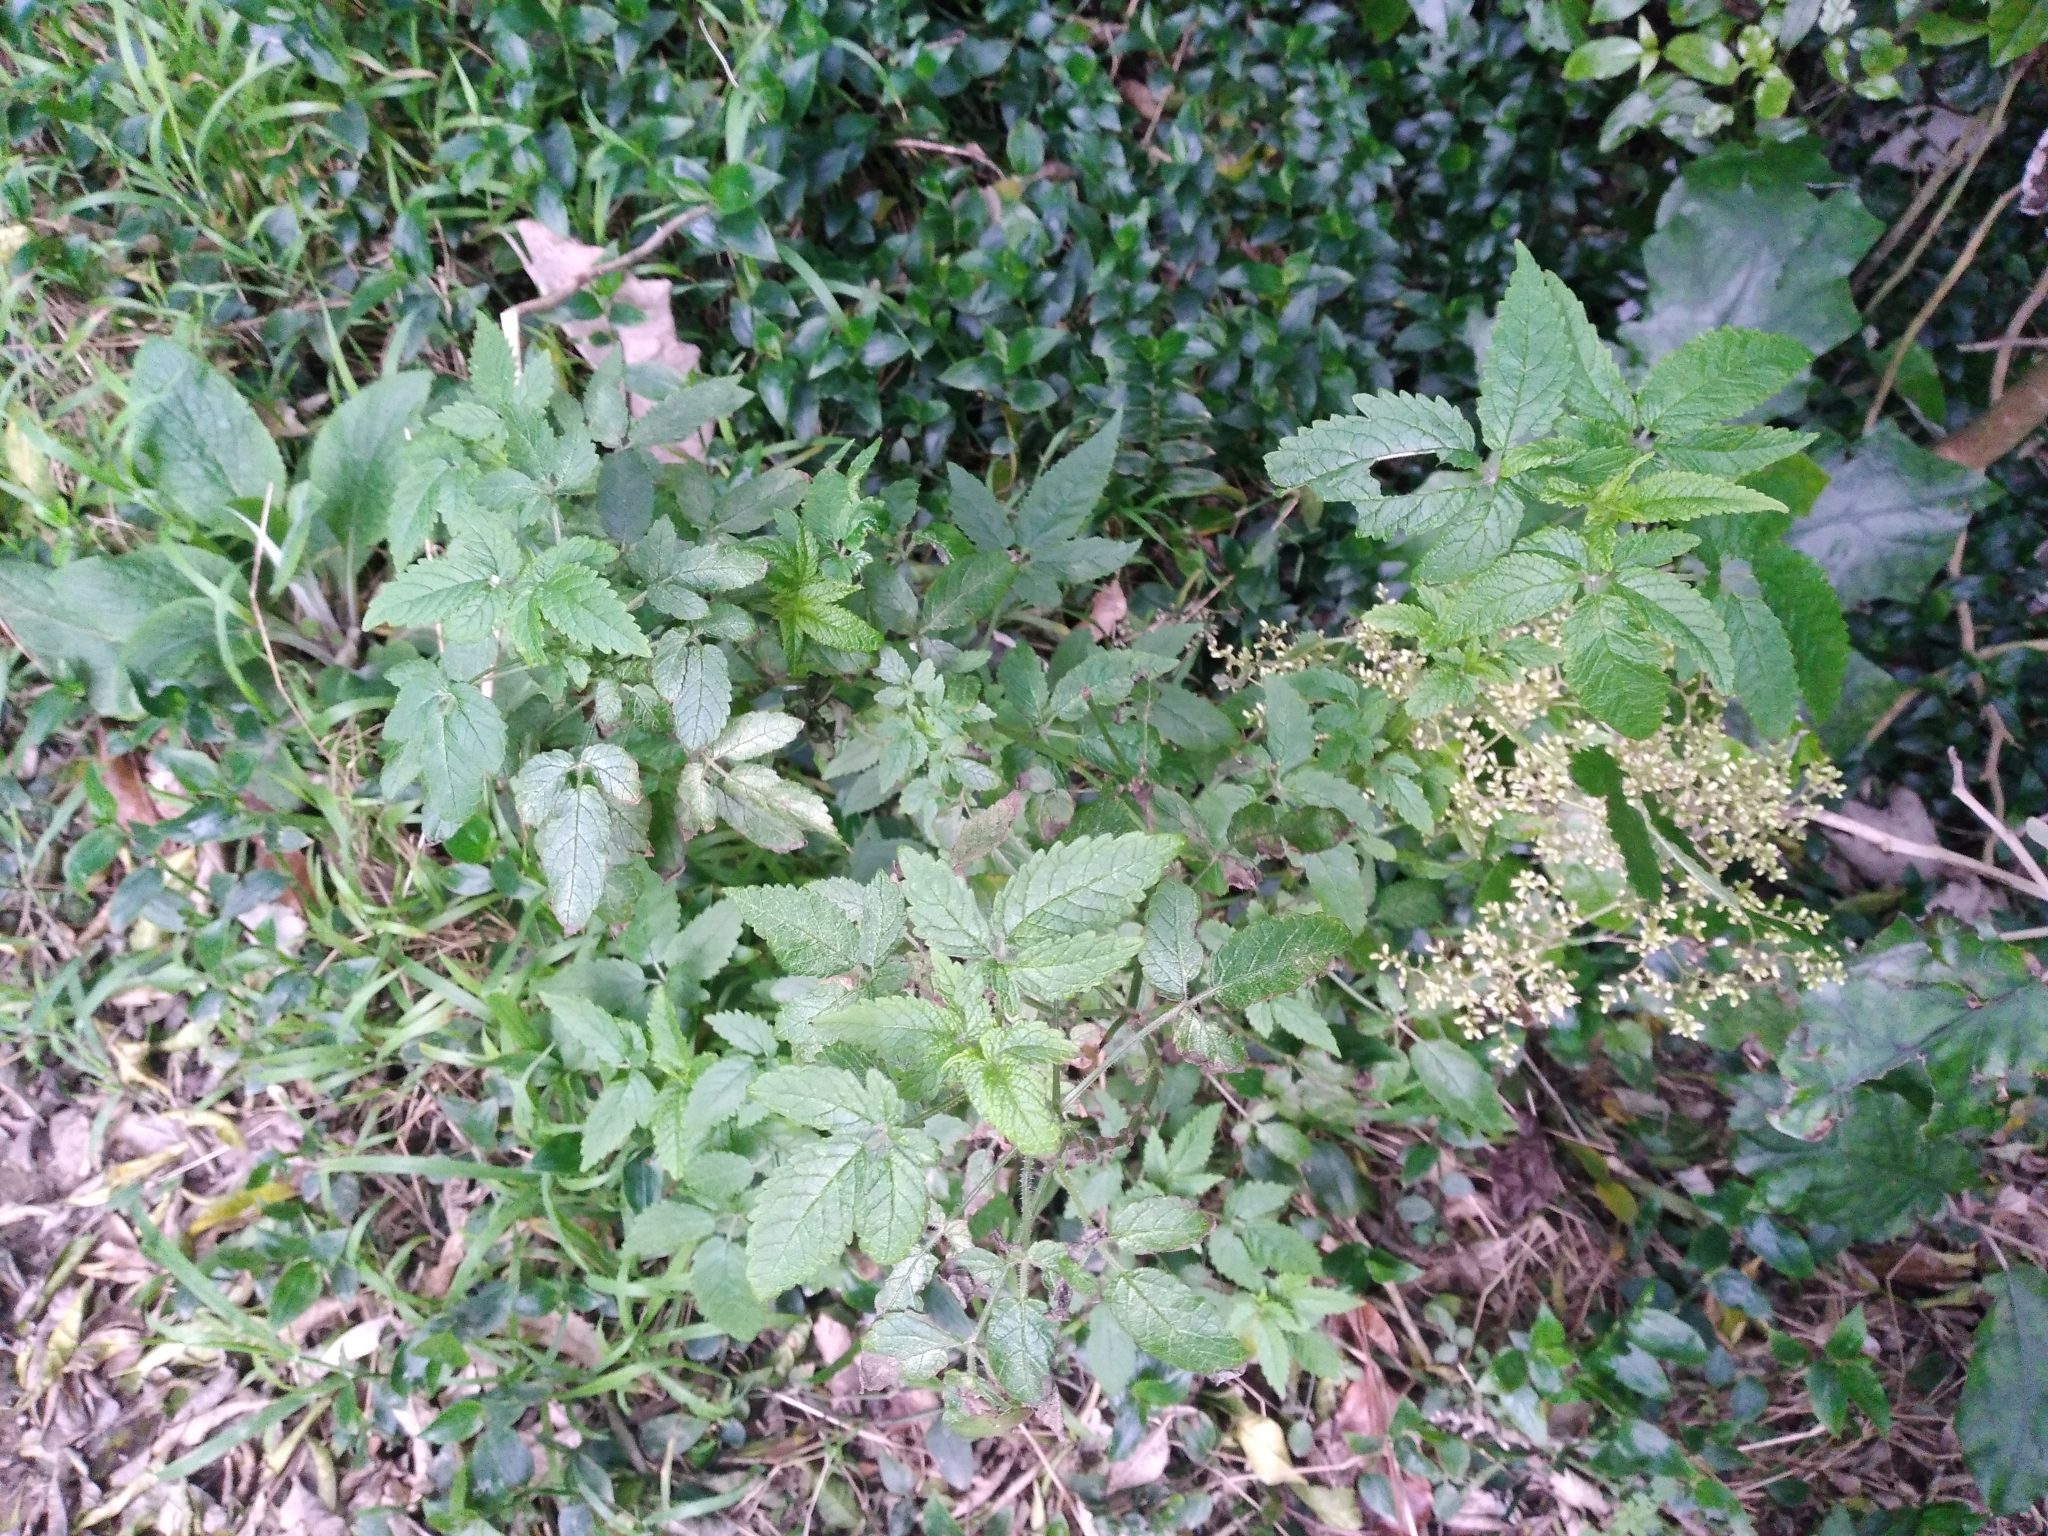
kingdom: Plantae
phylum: Tracheophyta
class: Magnoliopsida
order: Lamiales
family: Lamiaceae
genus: Cedronella
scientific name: Cedronella canariensis
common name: Canary islands balm
